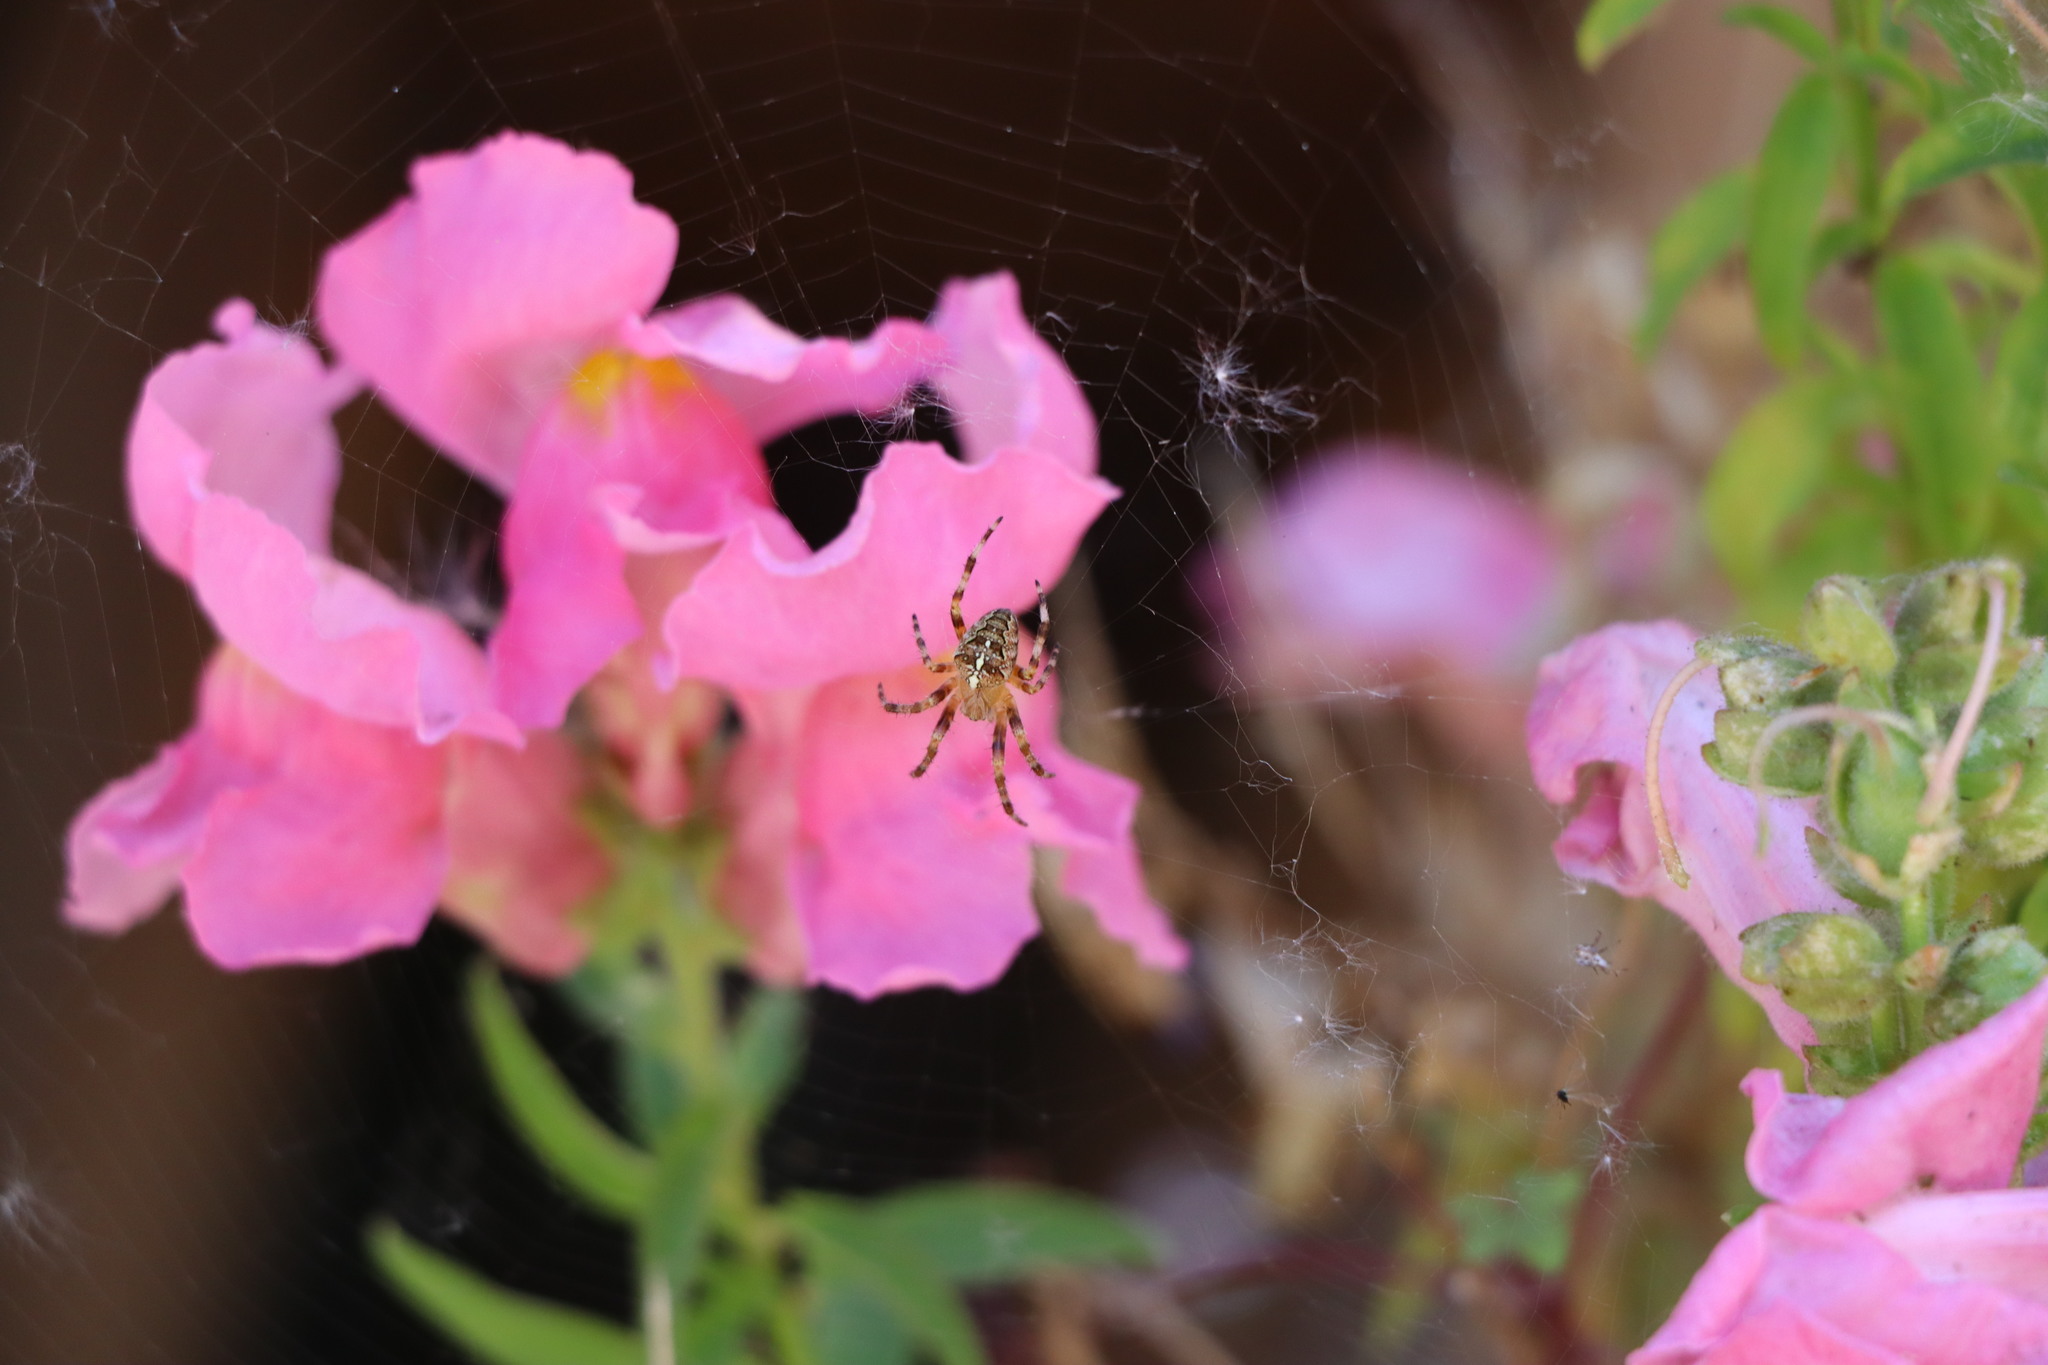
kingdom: Animalia
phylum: Arthropoda
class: Arachnida
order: Araneae
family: Araneidae
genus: Araneus
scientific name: Araneus diadematus
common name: Cross orbweaver
